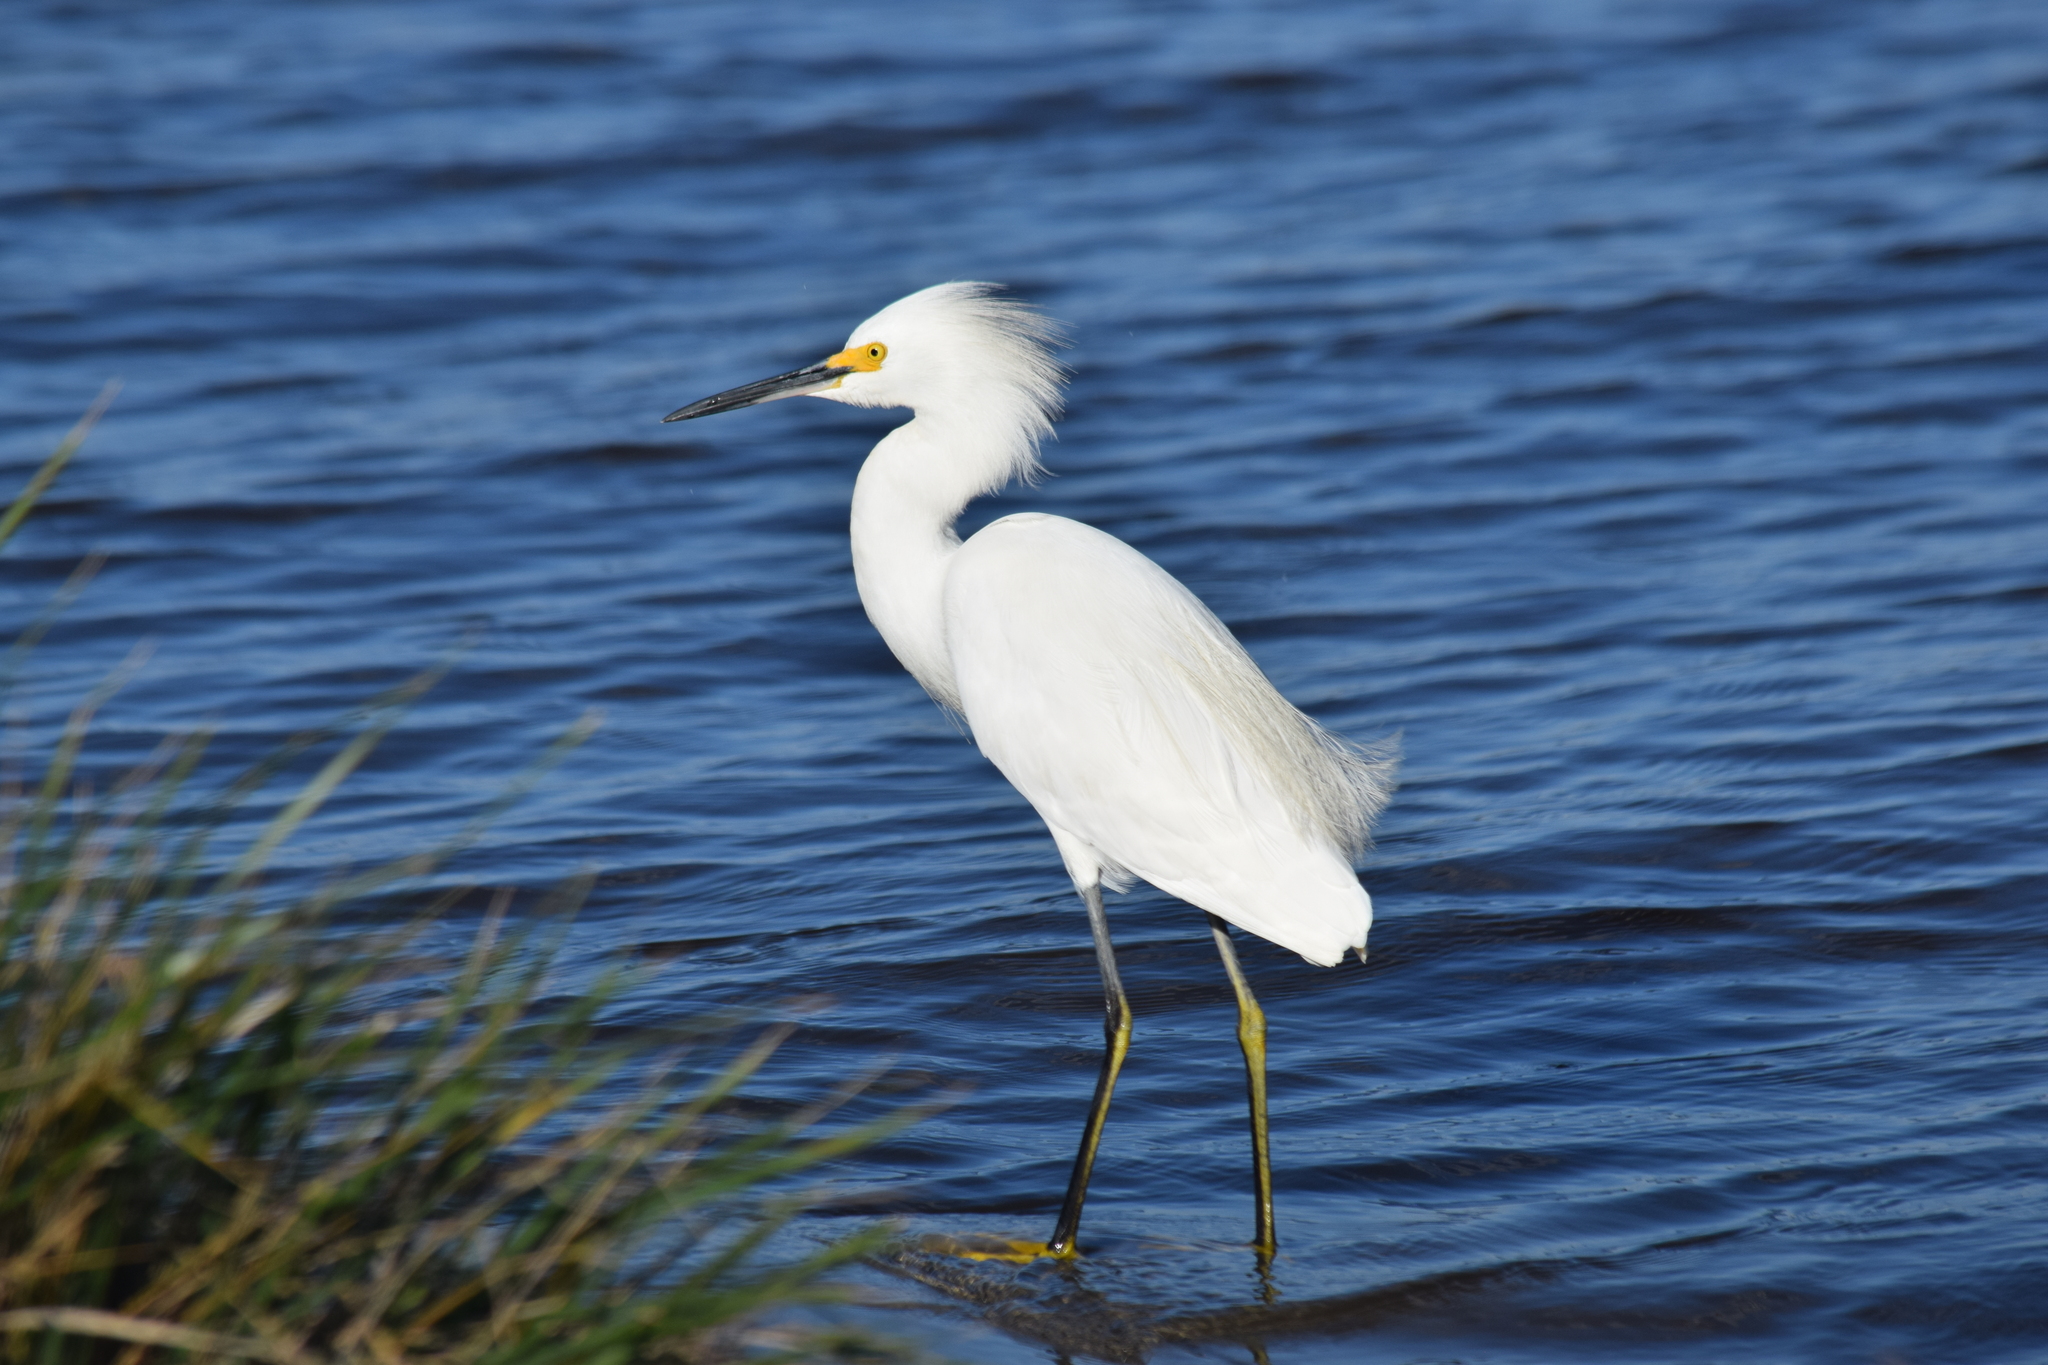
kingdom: Animalia
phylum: Chordata
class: Aves
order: Pelecaniformes
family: Ardeidae
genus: Egretta
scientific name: Egretta thula
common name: Snowy egret
